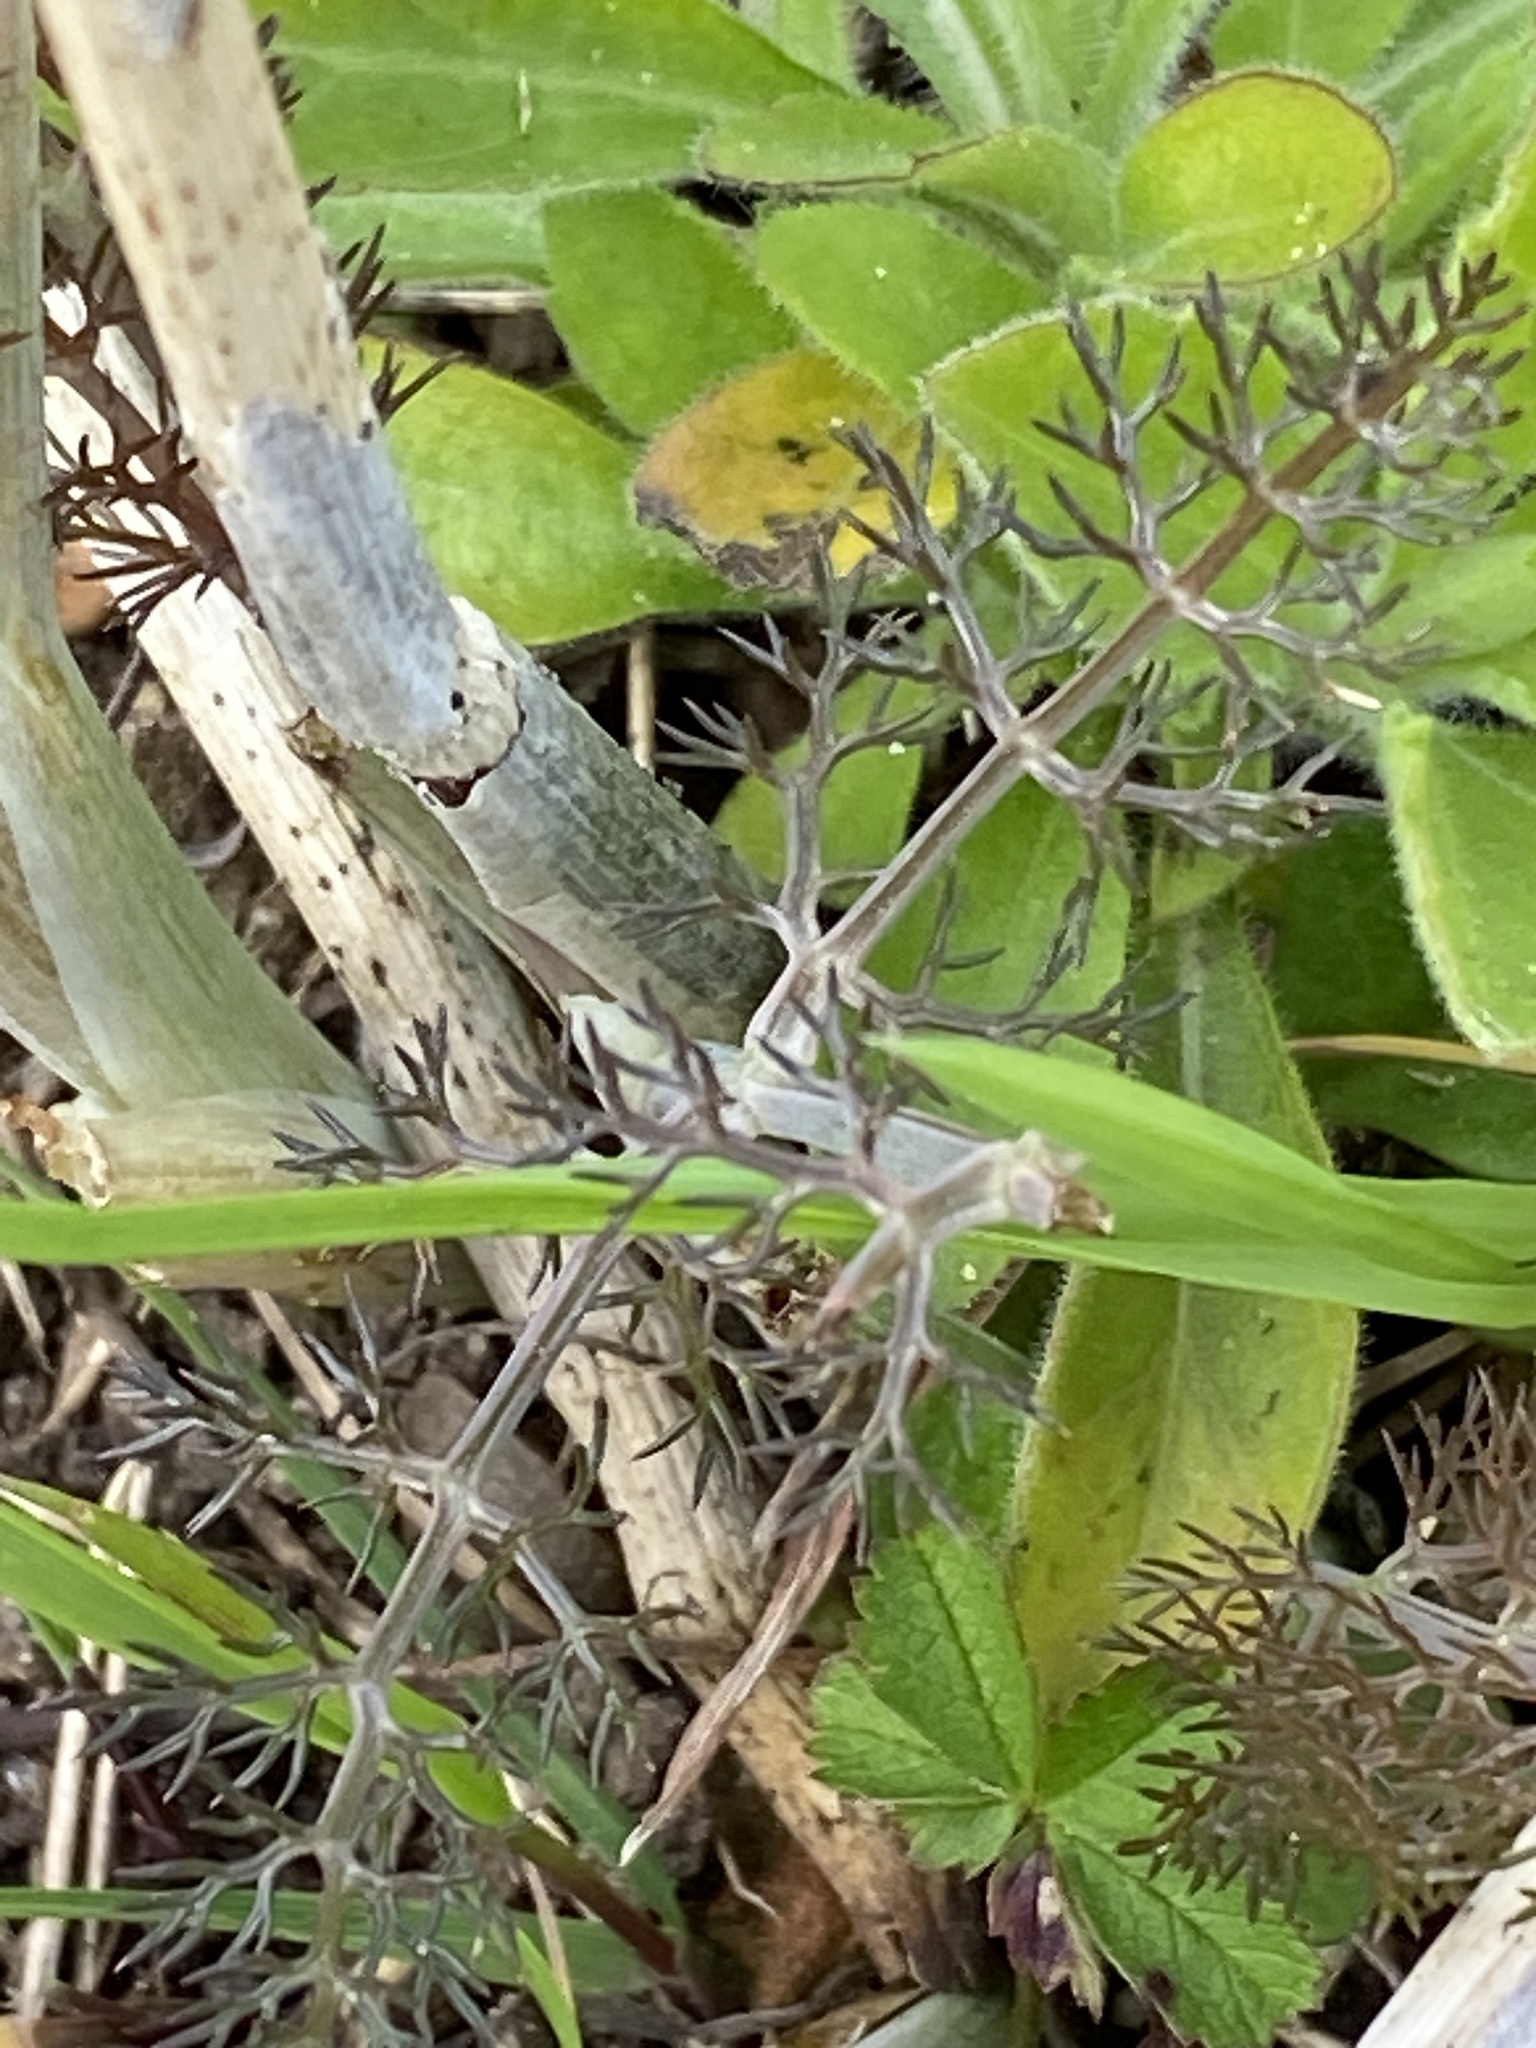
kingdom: Plantae
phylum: Tracheophyta
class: Magnoliopsida
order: Apiales
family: Apiaceae
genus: Foeniculum
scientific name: Foeniculum vulgare
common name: Fennel
